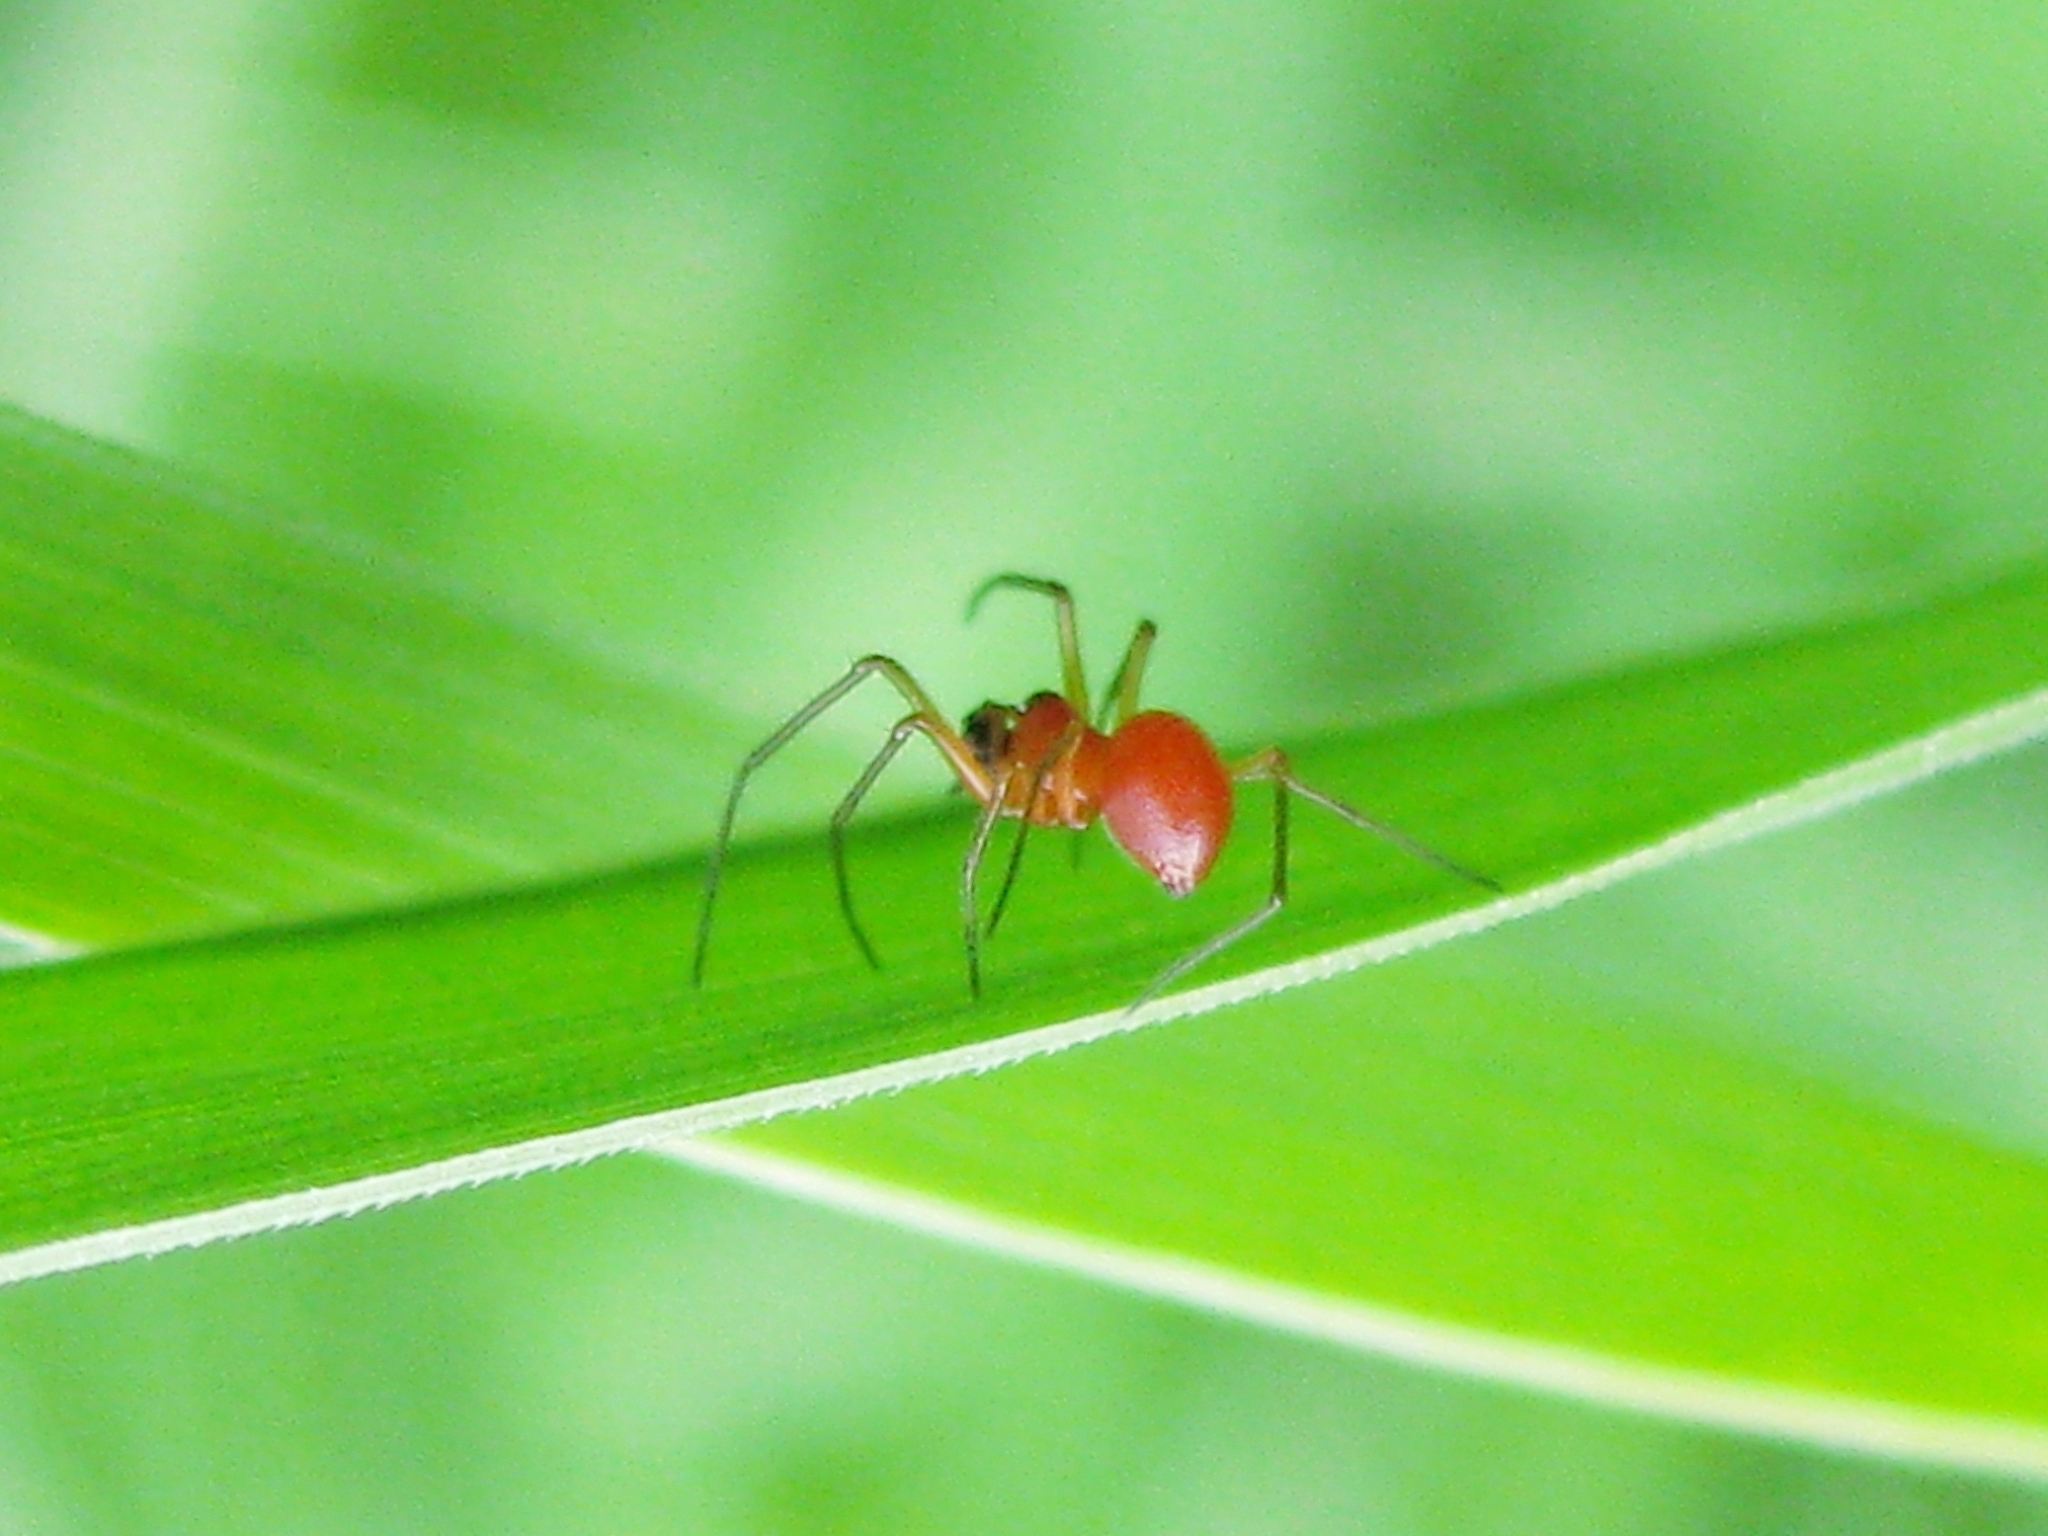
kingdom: Animalia
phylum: Arthropoda
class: Arachnida
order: Araneae
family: Linyphiidae
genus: Nematogmus
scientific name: Nematogmus sanguinolentus
